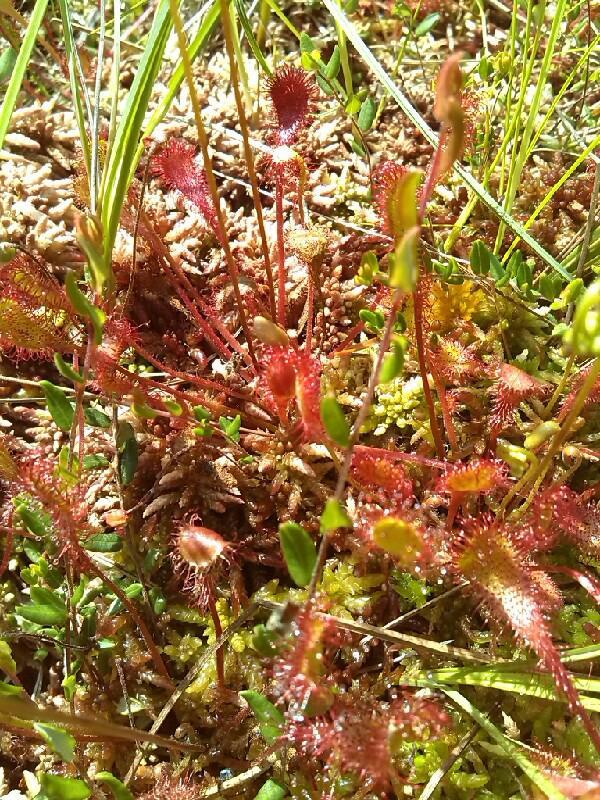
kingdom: Plantae
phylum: Tracheophyta
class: Magnoliopsida
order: Caryophyllales
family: Droseraceae
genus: Drosera
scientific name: Drosera obovata
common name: Ivan's paddle
